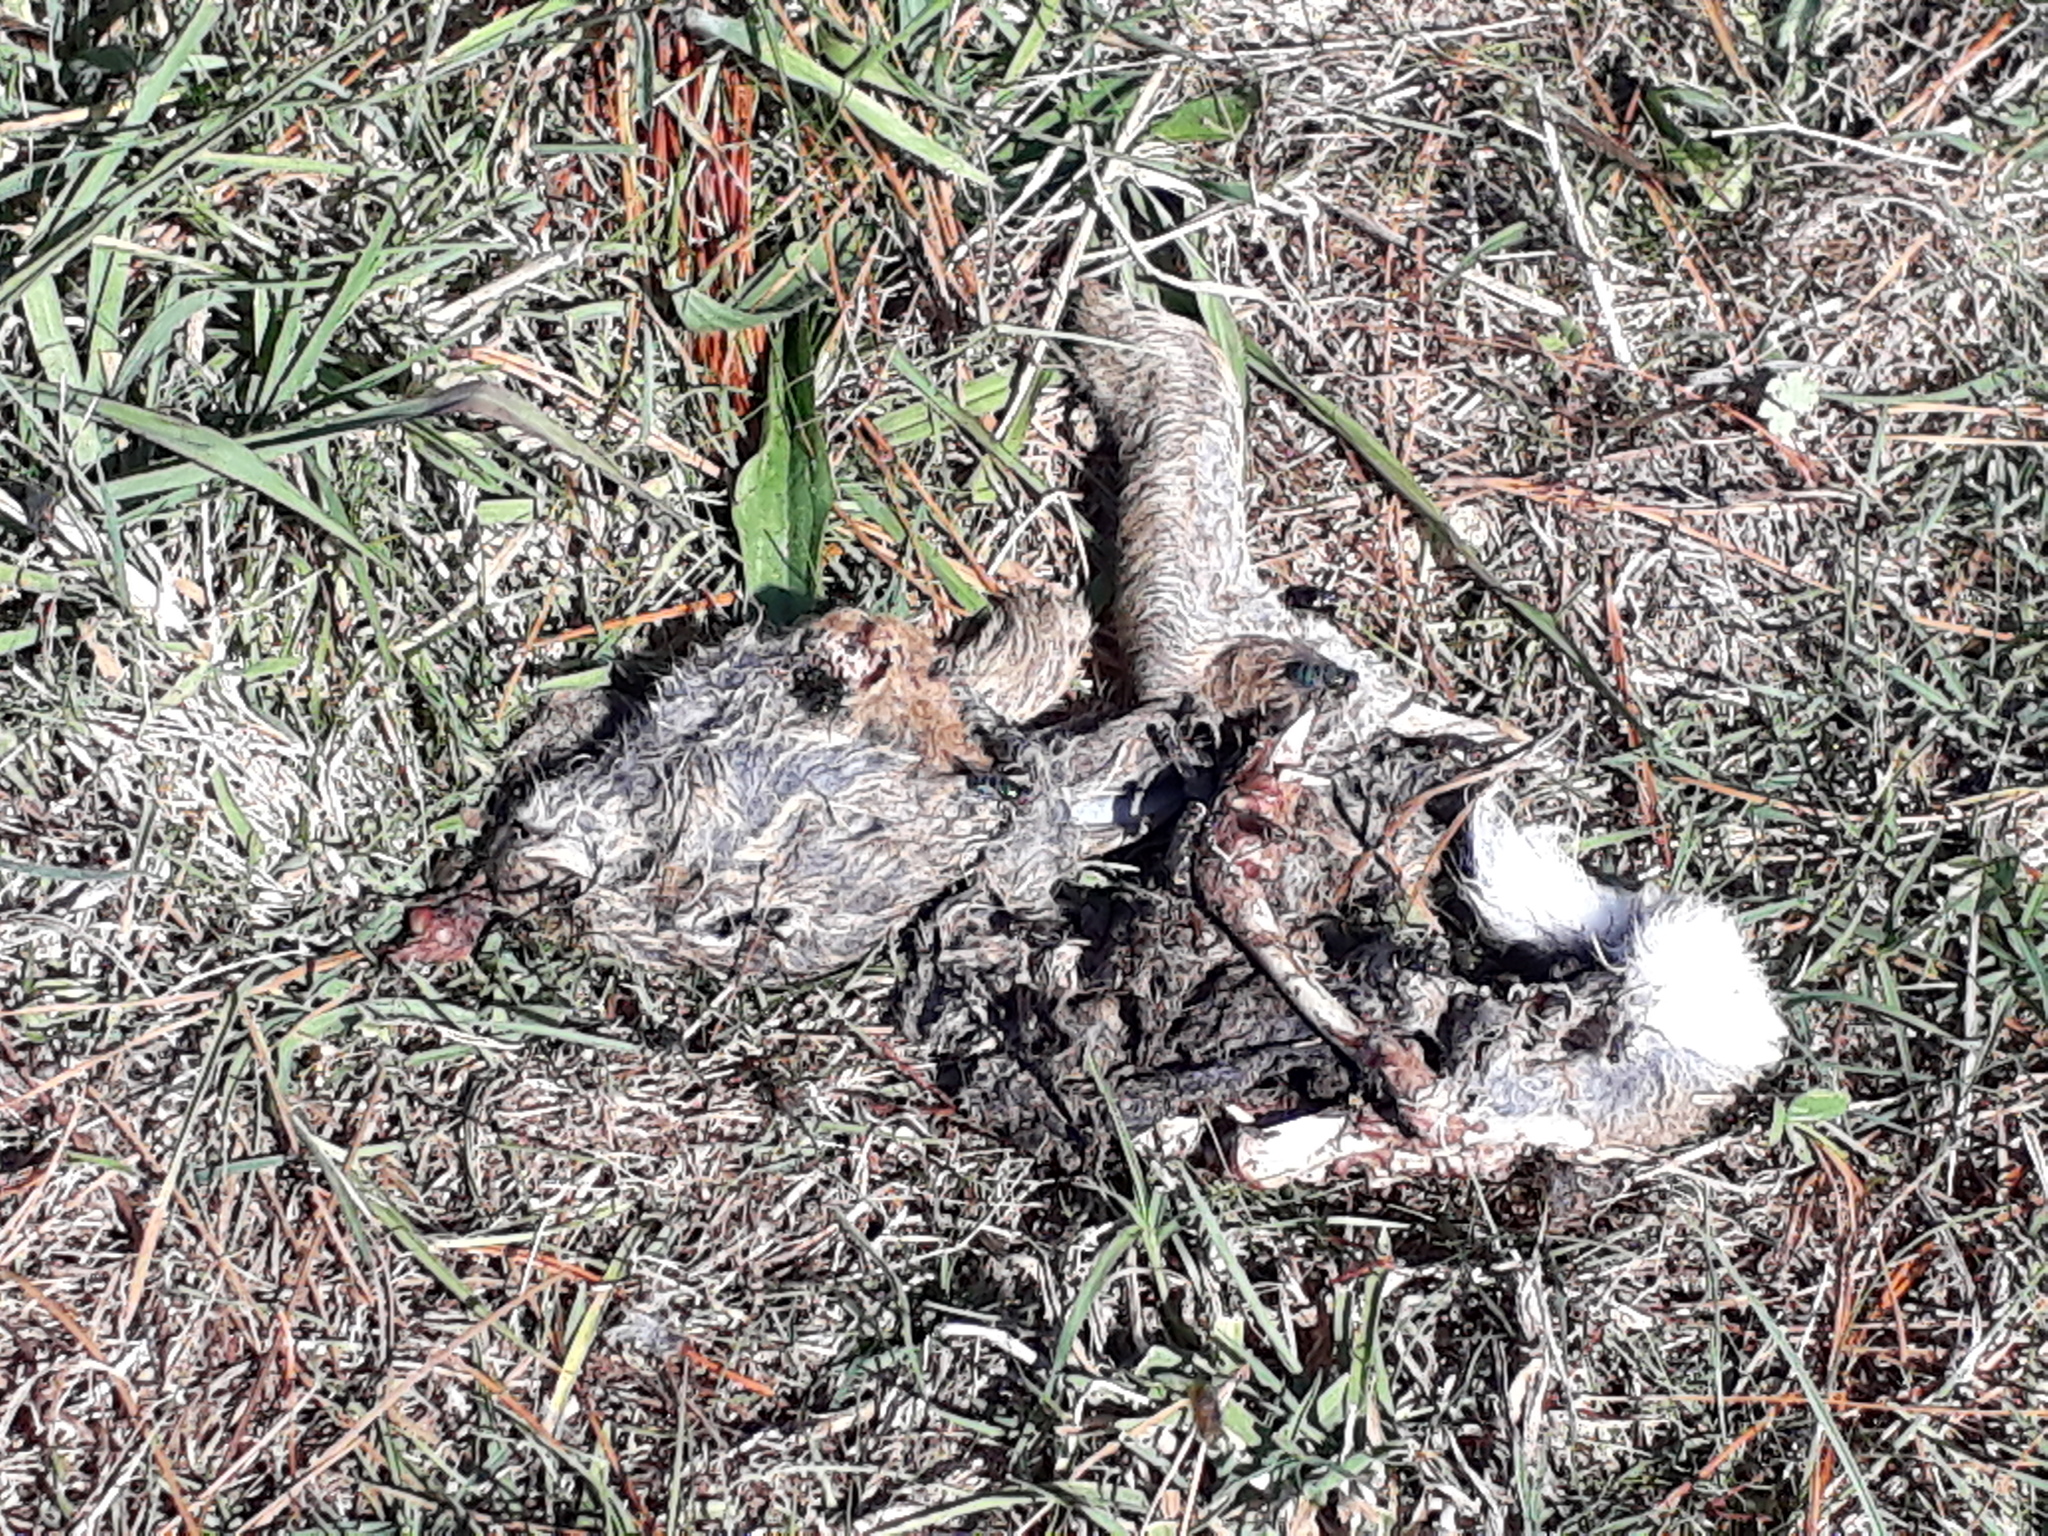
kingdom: Animalia
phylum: Chordata
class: Mammalia
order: Lagomorpha
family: Leporidae
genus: Oryctolagus
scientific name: Oryctolagus cuniculus
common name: European rabbit
